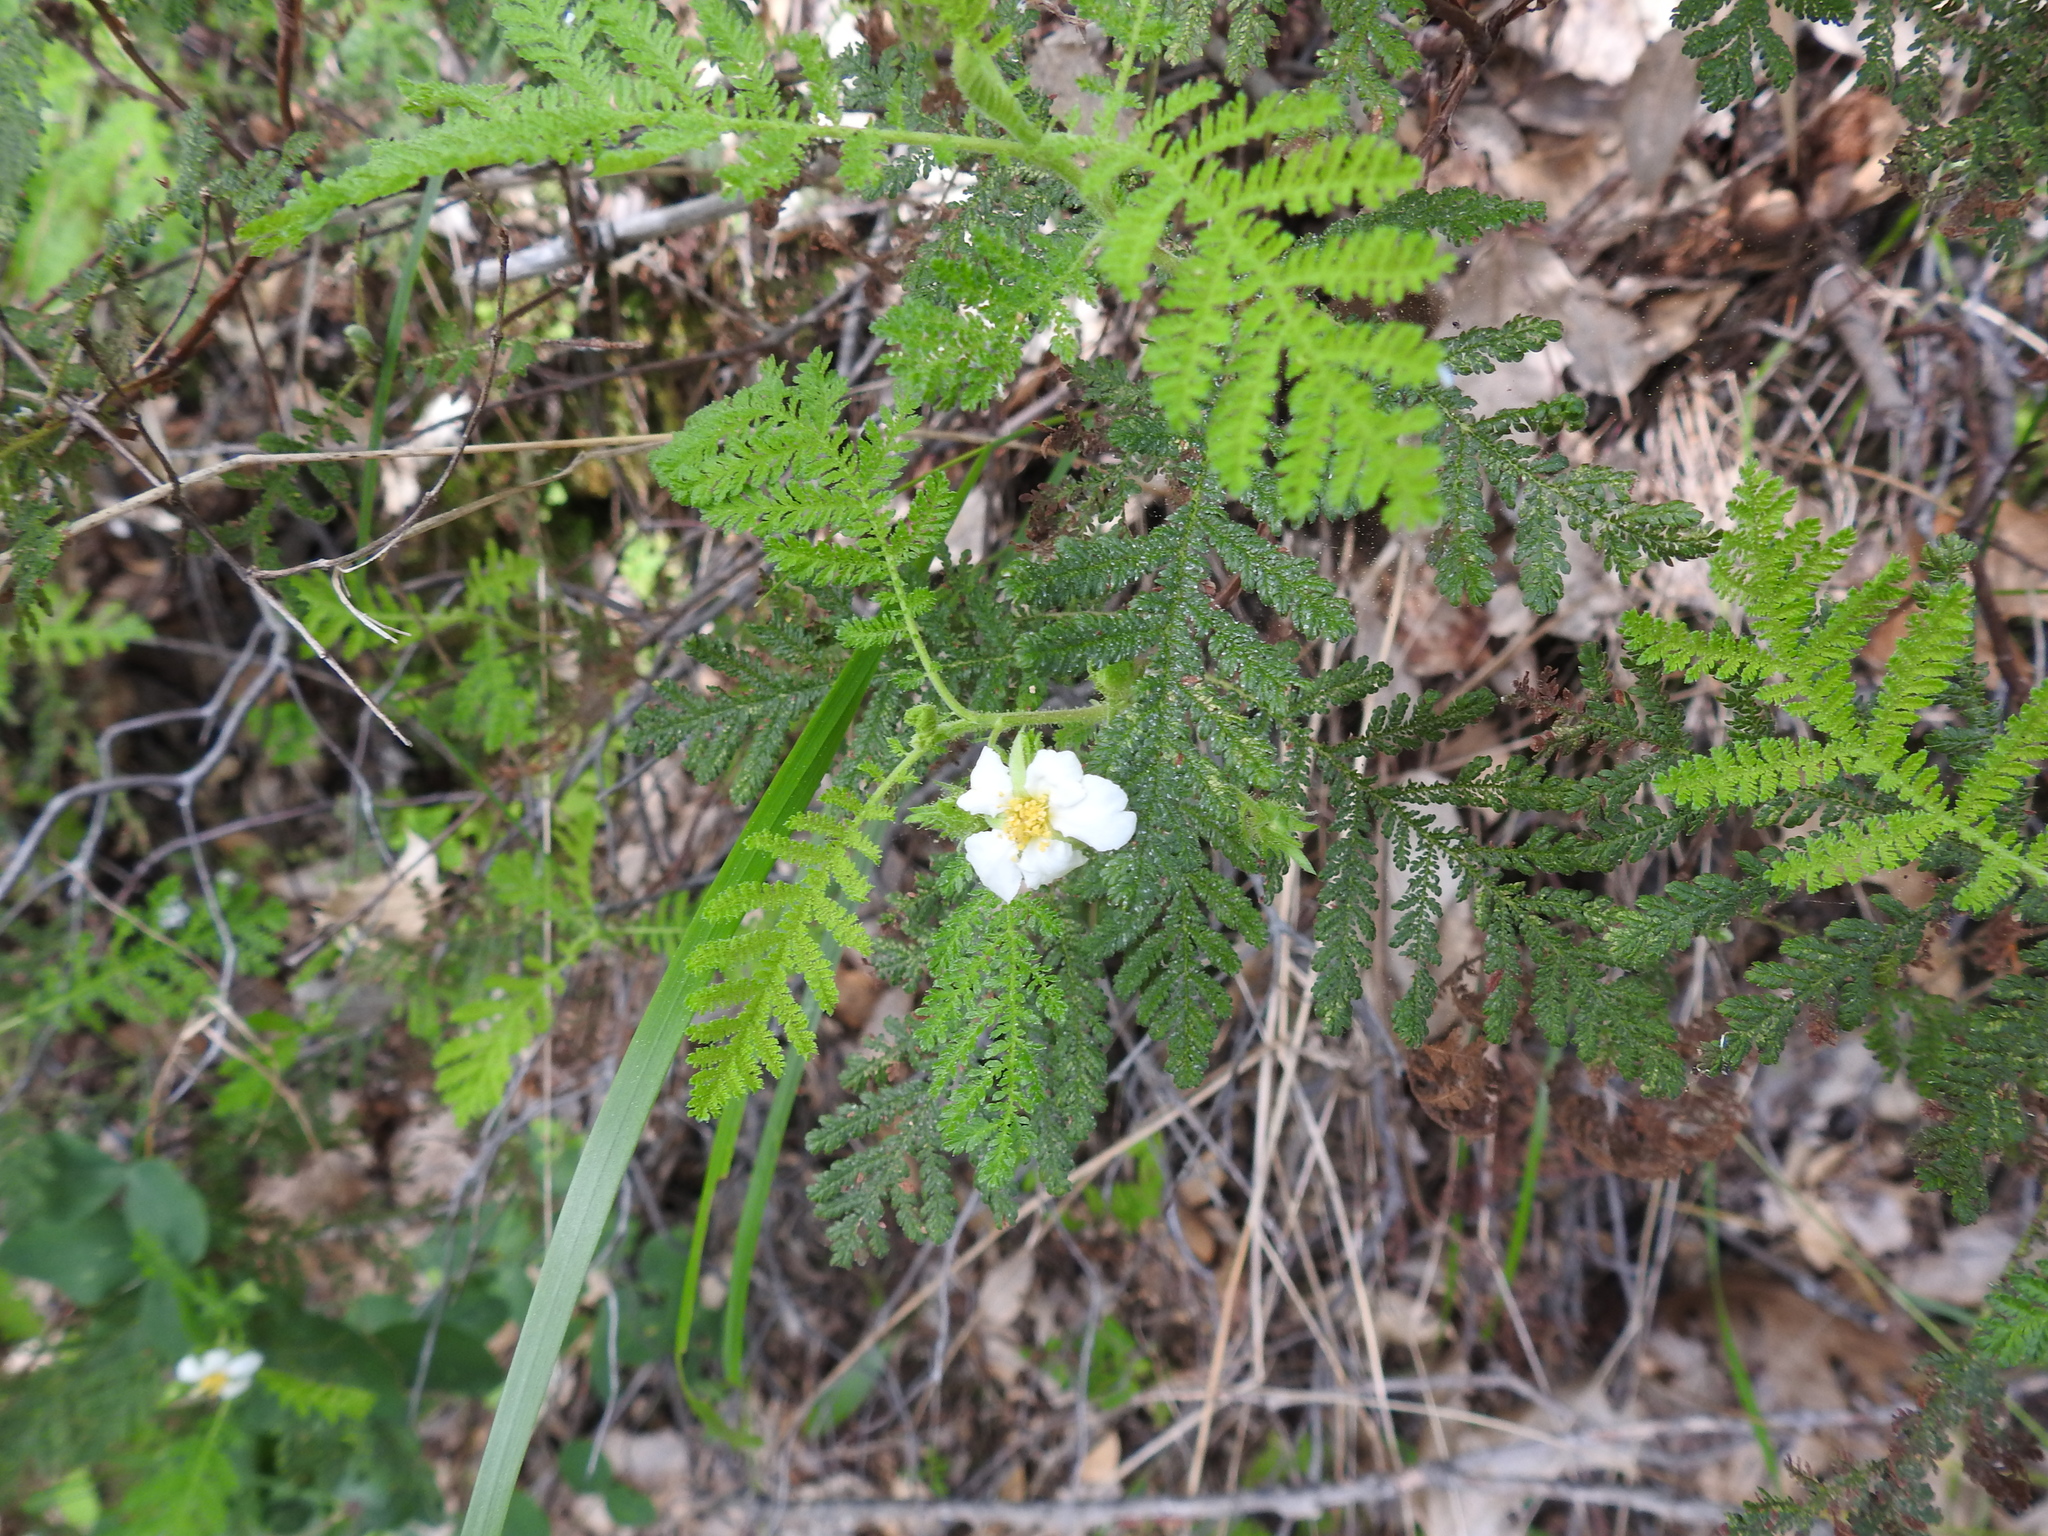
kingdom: Plantae
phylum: Tracheophyta
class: Magnoliopsida
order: Rosales
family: Rosaceae
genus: Chamaebatia
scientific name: Chamaebatia foliolosa
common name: Mountain misery
